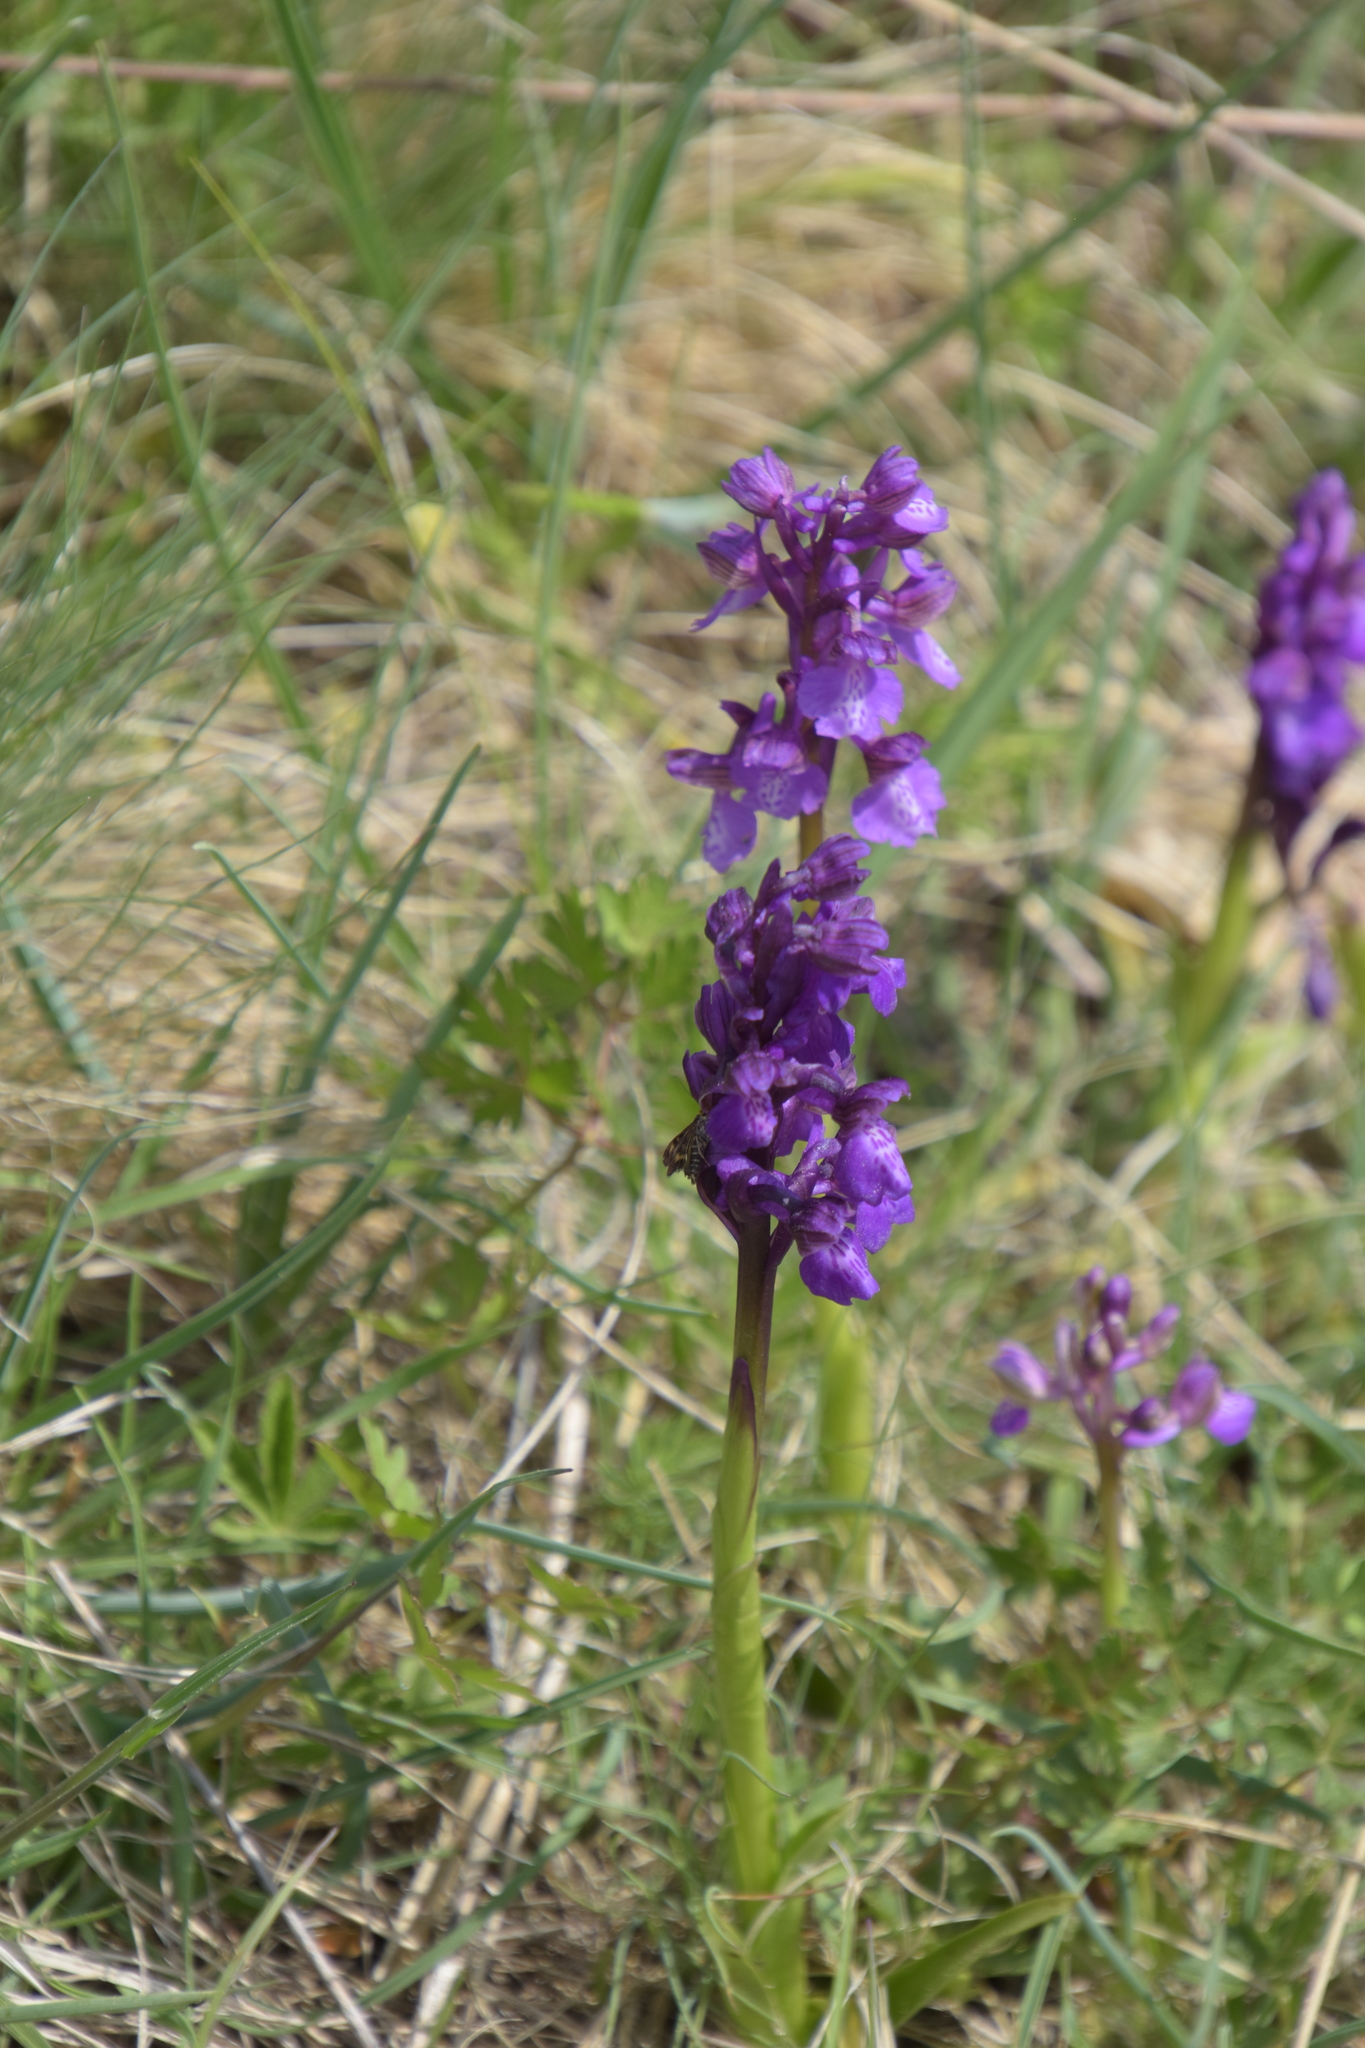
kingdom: Plantae
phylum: Tracheophyta
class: Liliopsida
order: Asparagales
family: Orchidaceae
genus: Anacamptis
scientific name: Anacamptis morio
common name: Green-winged orchid
